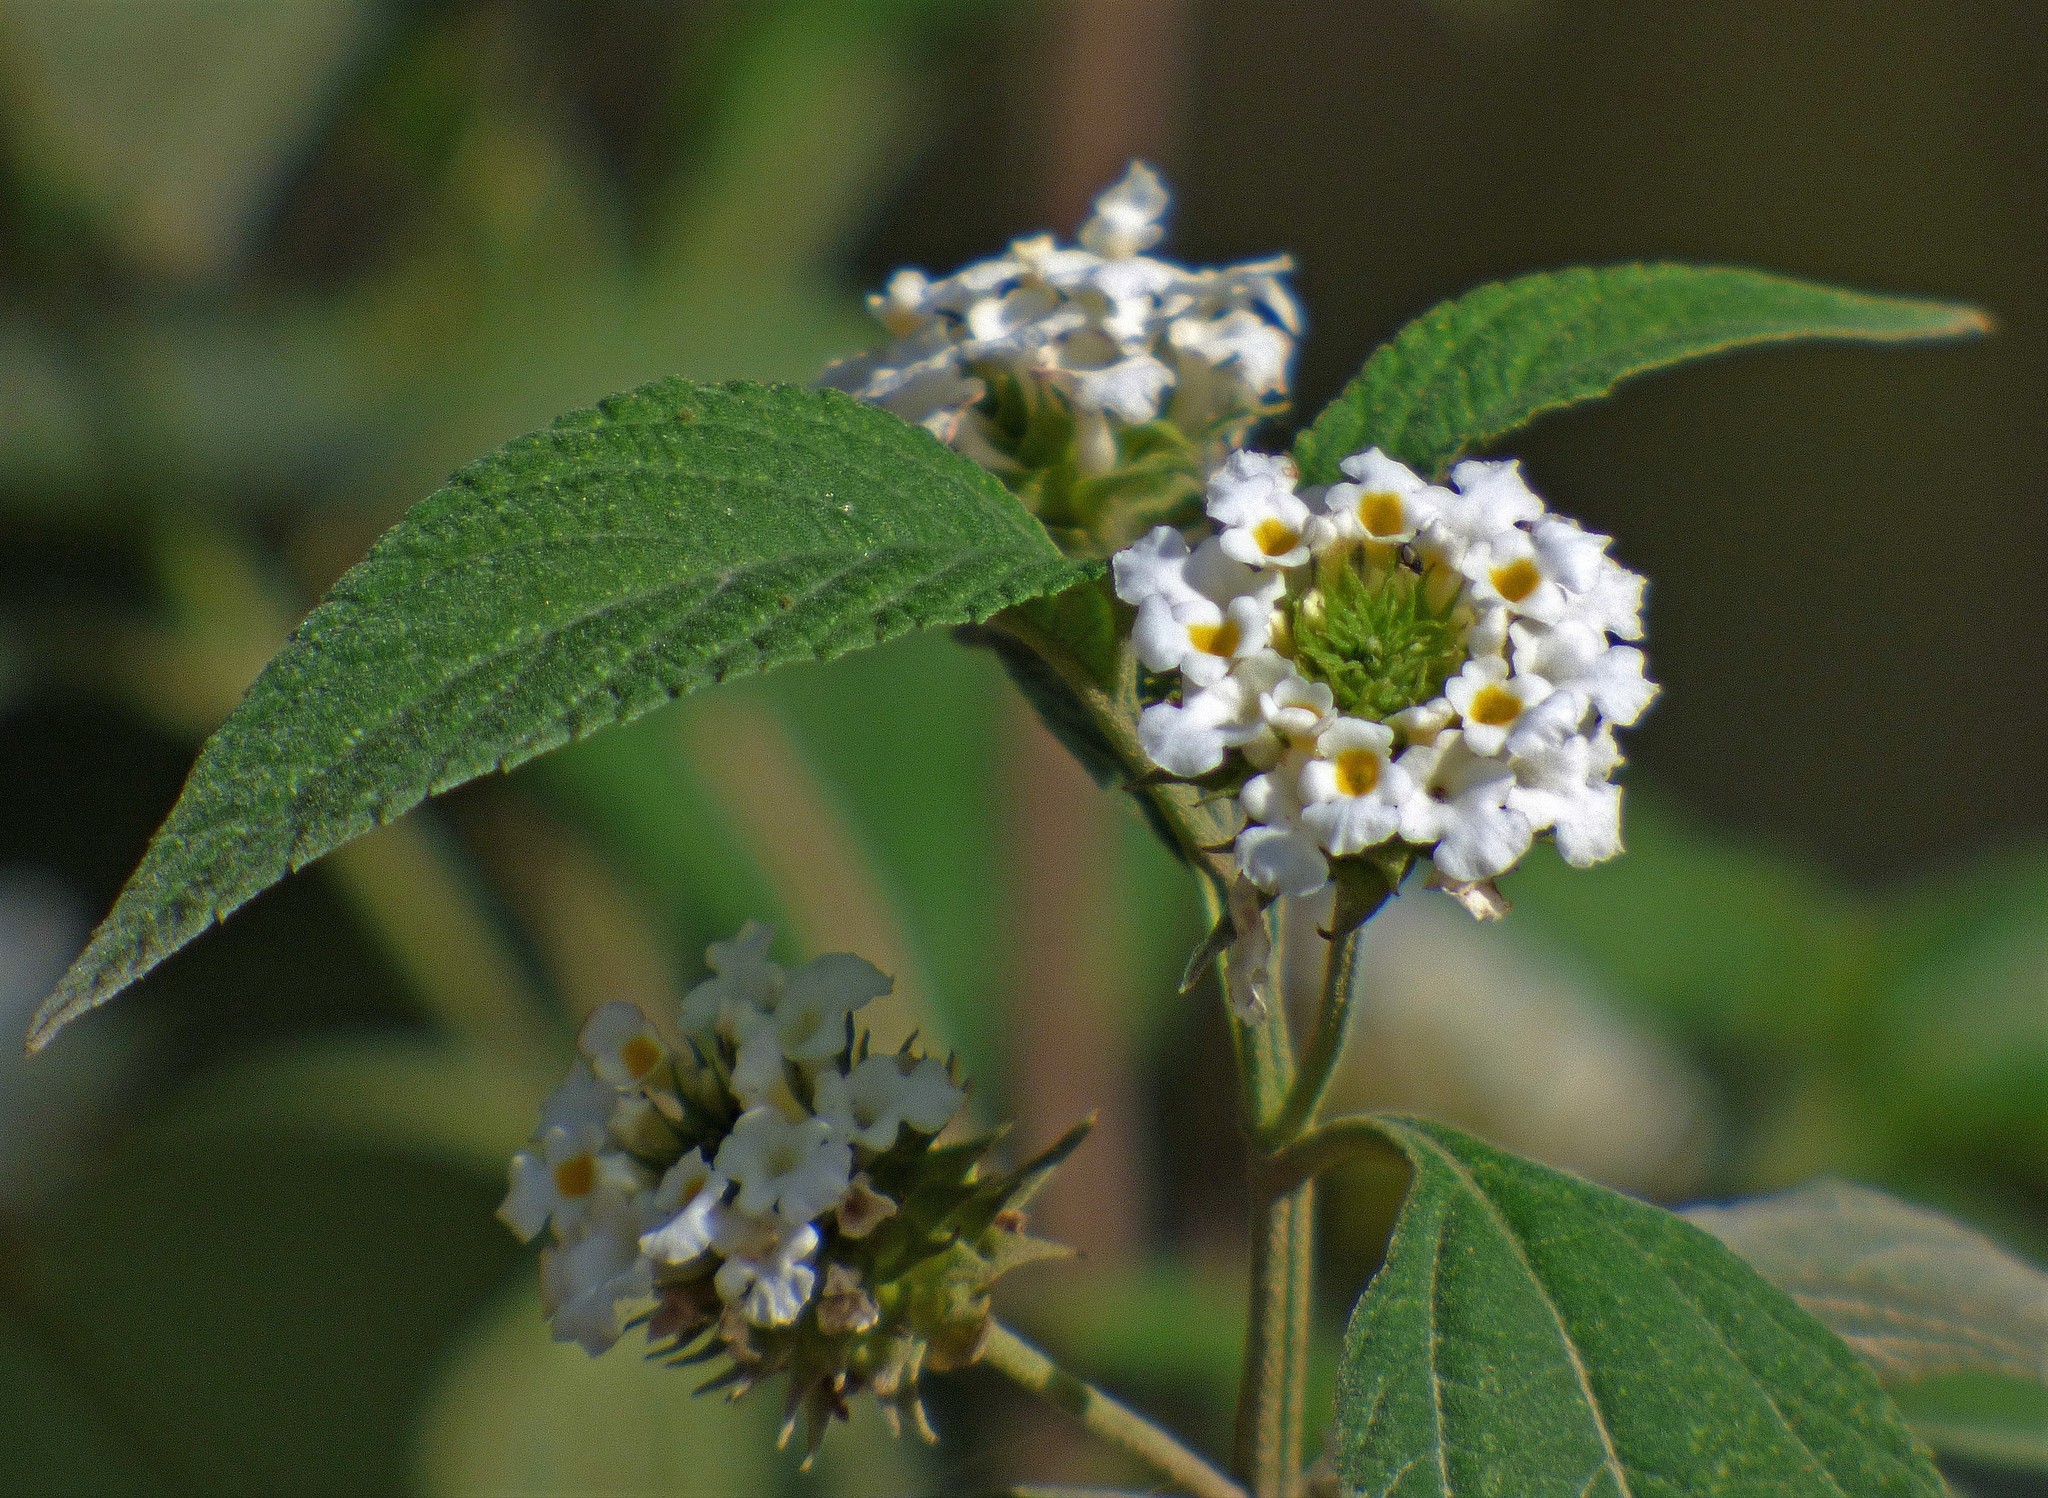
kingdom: Plantae
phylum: Tracheophyta
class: Magnoliopsida
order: Lamiales
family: Verbenaceae
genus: Lantana
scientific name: Lantana canescens
